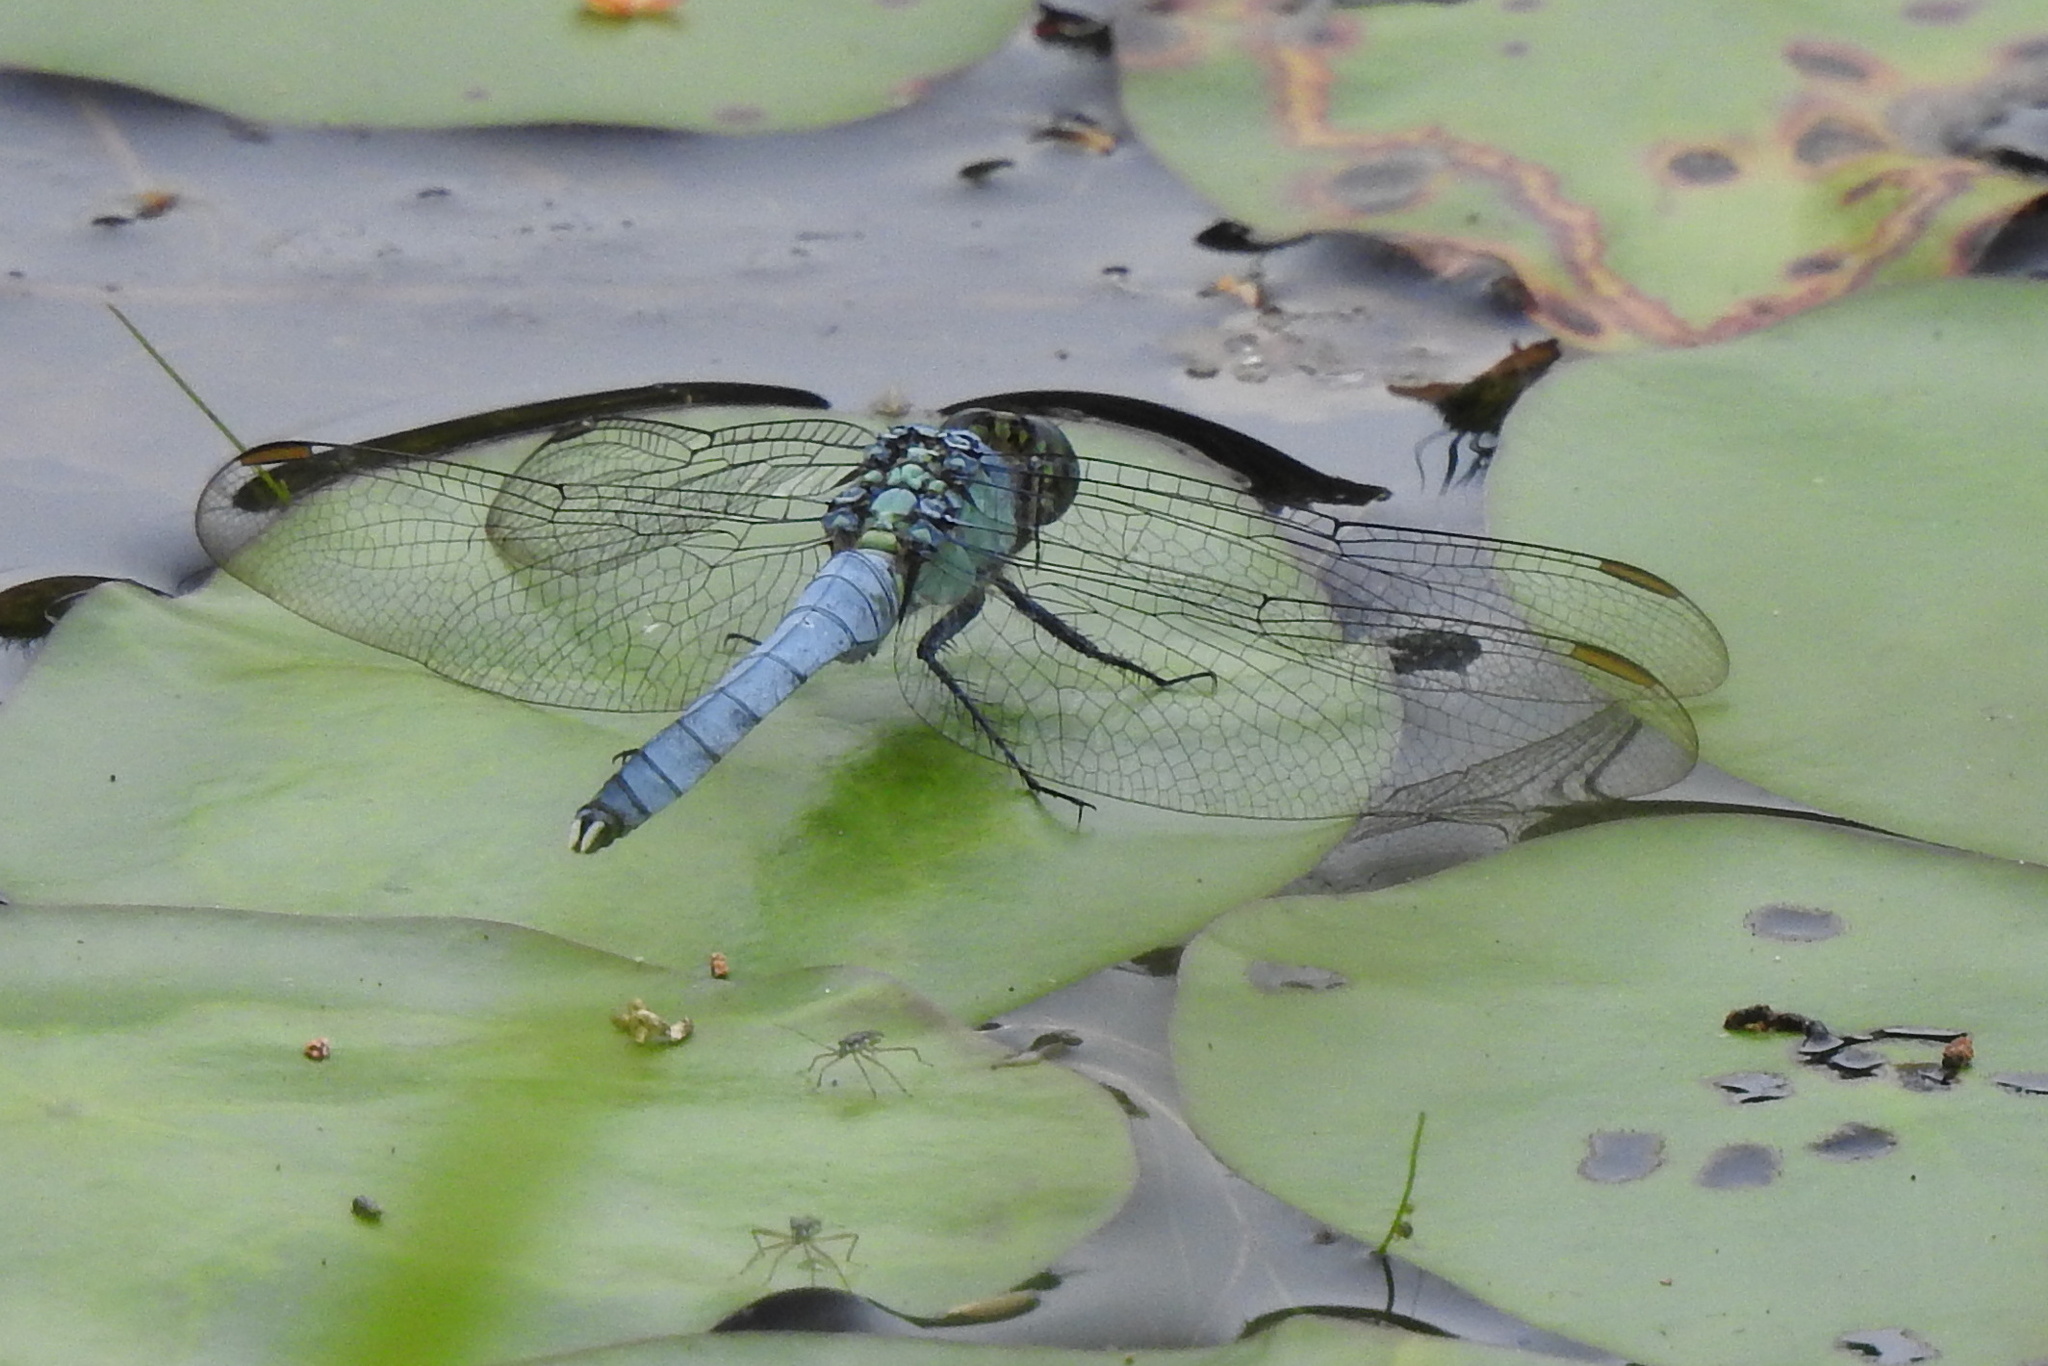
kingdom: Animalia
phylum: Arthropoda
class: Insecta
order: Odonata
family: Libellulidae
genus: Erythemis
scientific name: Erythemis simplicicollis
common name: Eastern pondhawk
